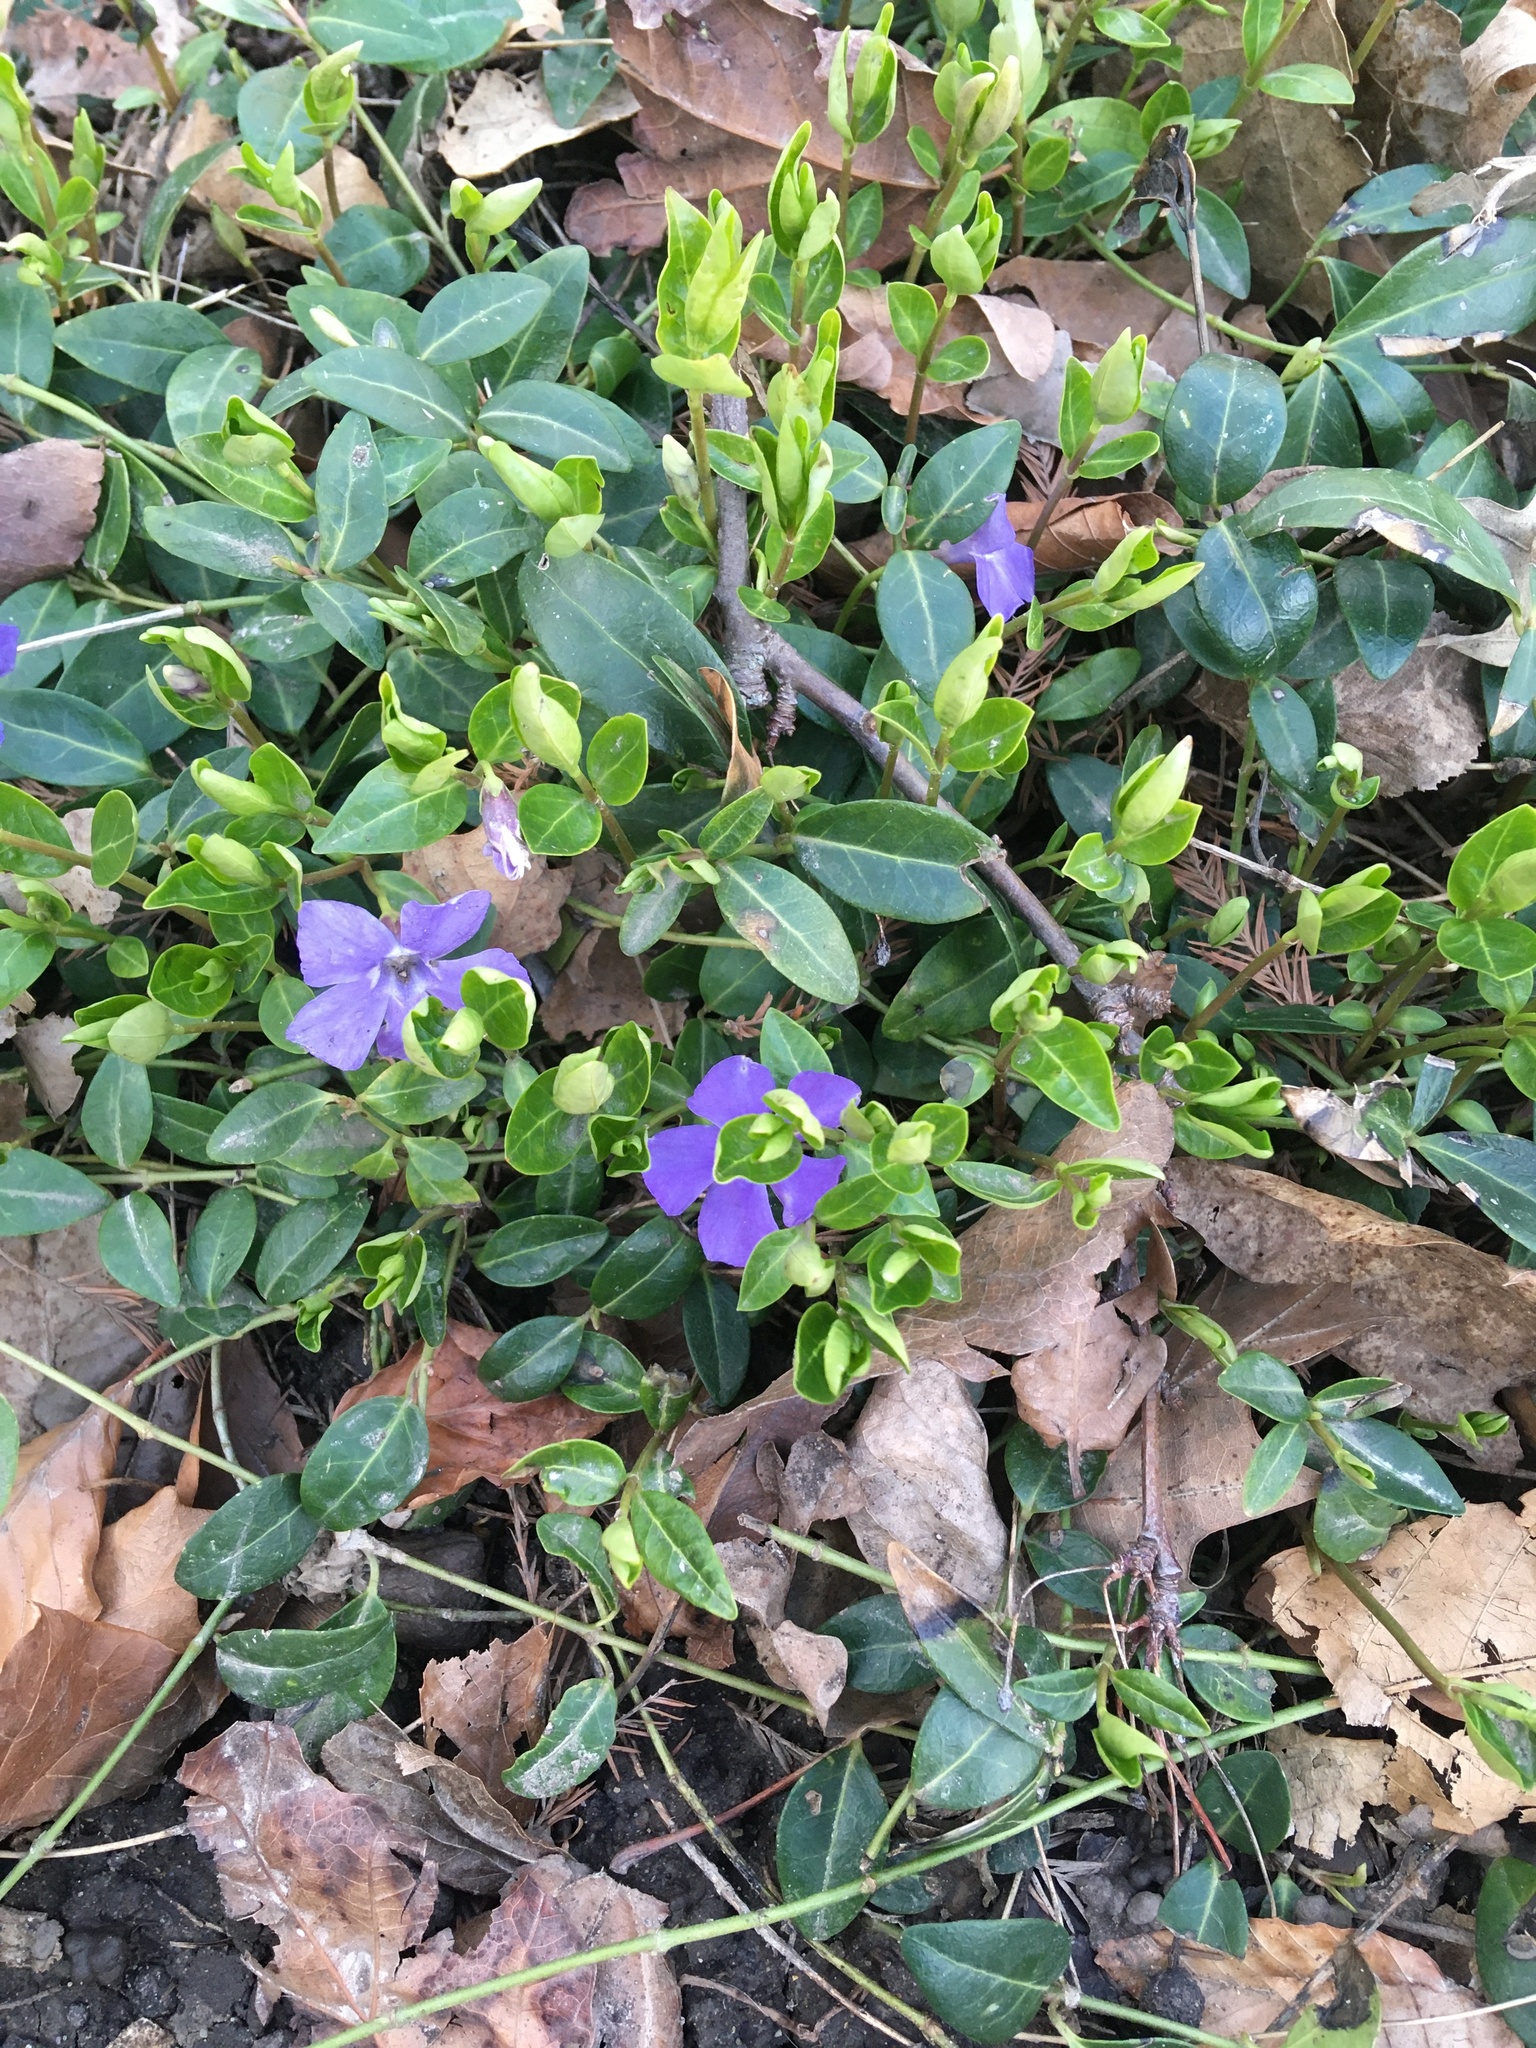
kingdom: Plantae
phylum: Tracheophyta
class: Magnoliopsida
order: Gentianales
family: Apocynaceae
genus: Vinca
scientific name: Vinca minor
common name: Lesser periwinkle
